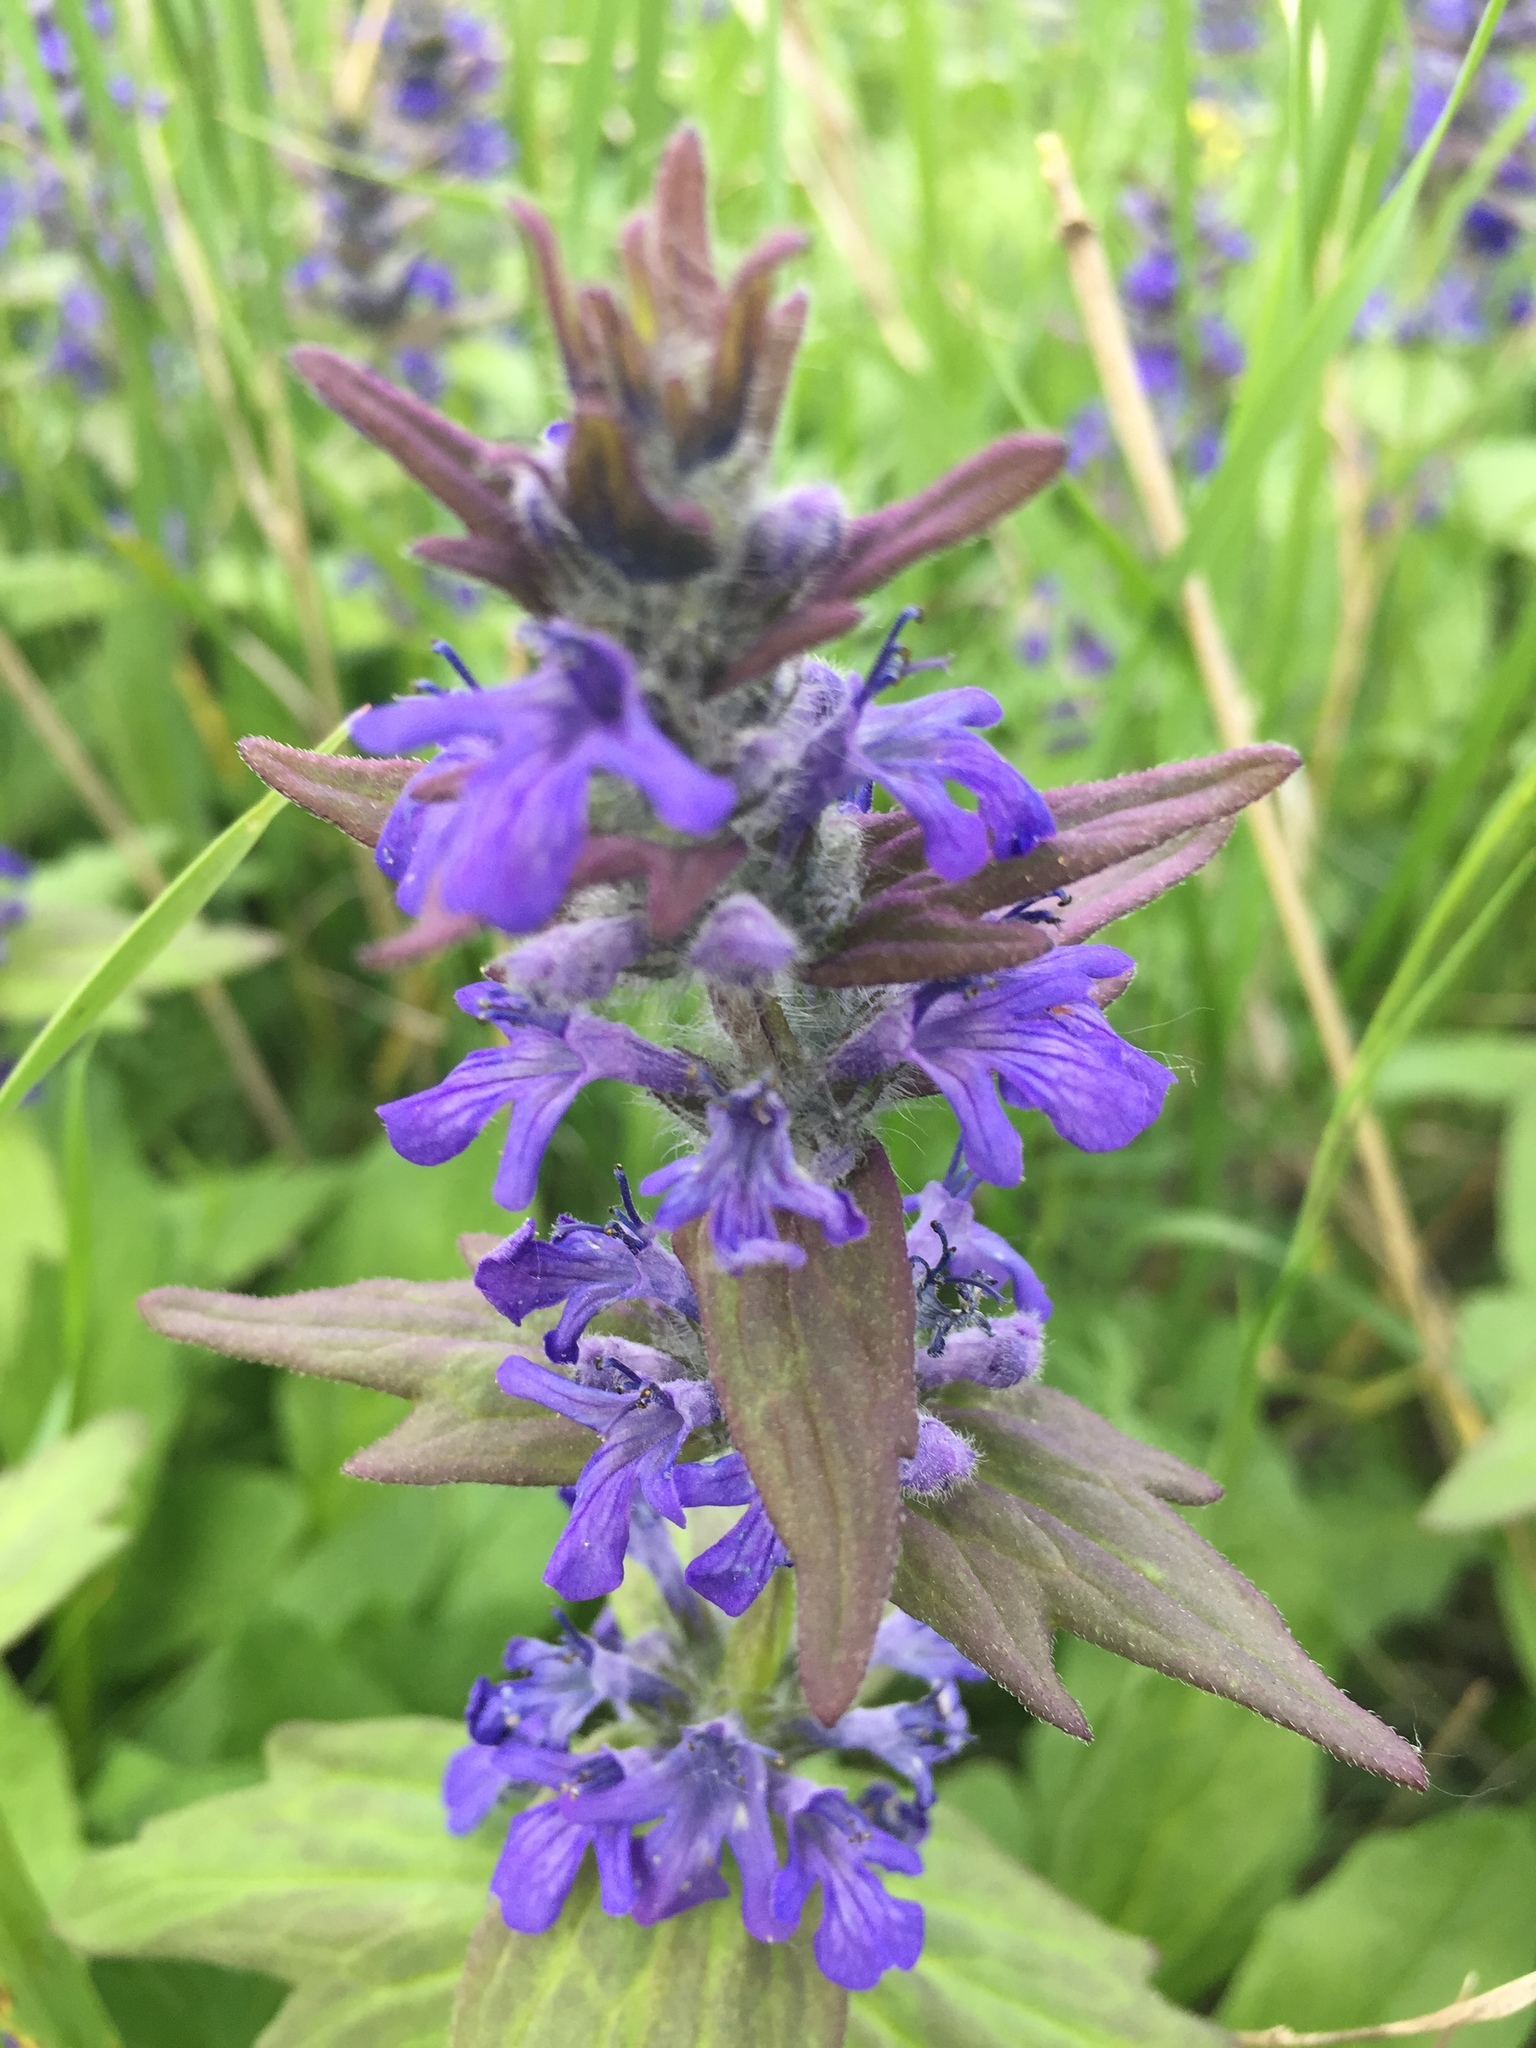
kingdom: Plantae
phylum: Tracheophyta
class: Magnoliopsida
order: Lamiales
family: Lamiaceae
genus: Ajuga
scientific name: Ajuga genevensis
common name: Blue bugle
